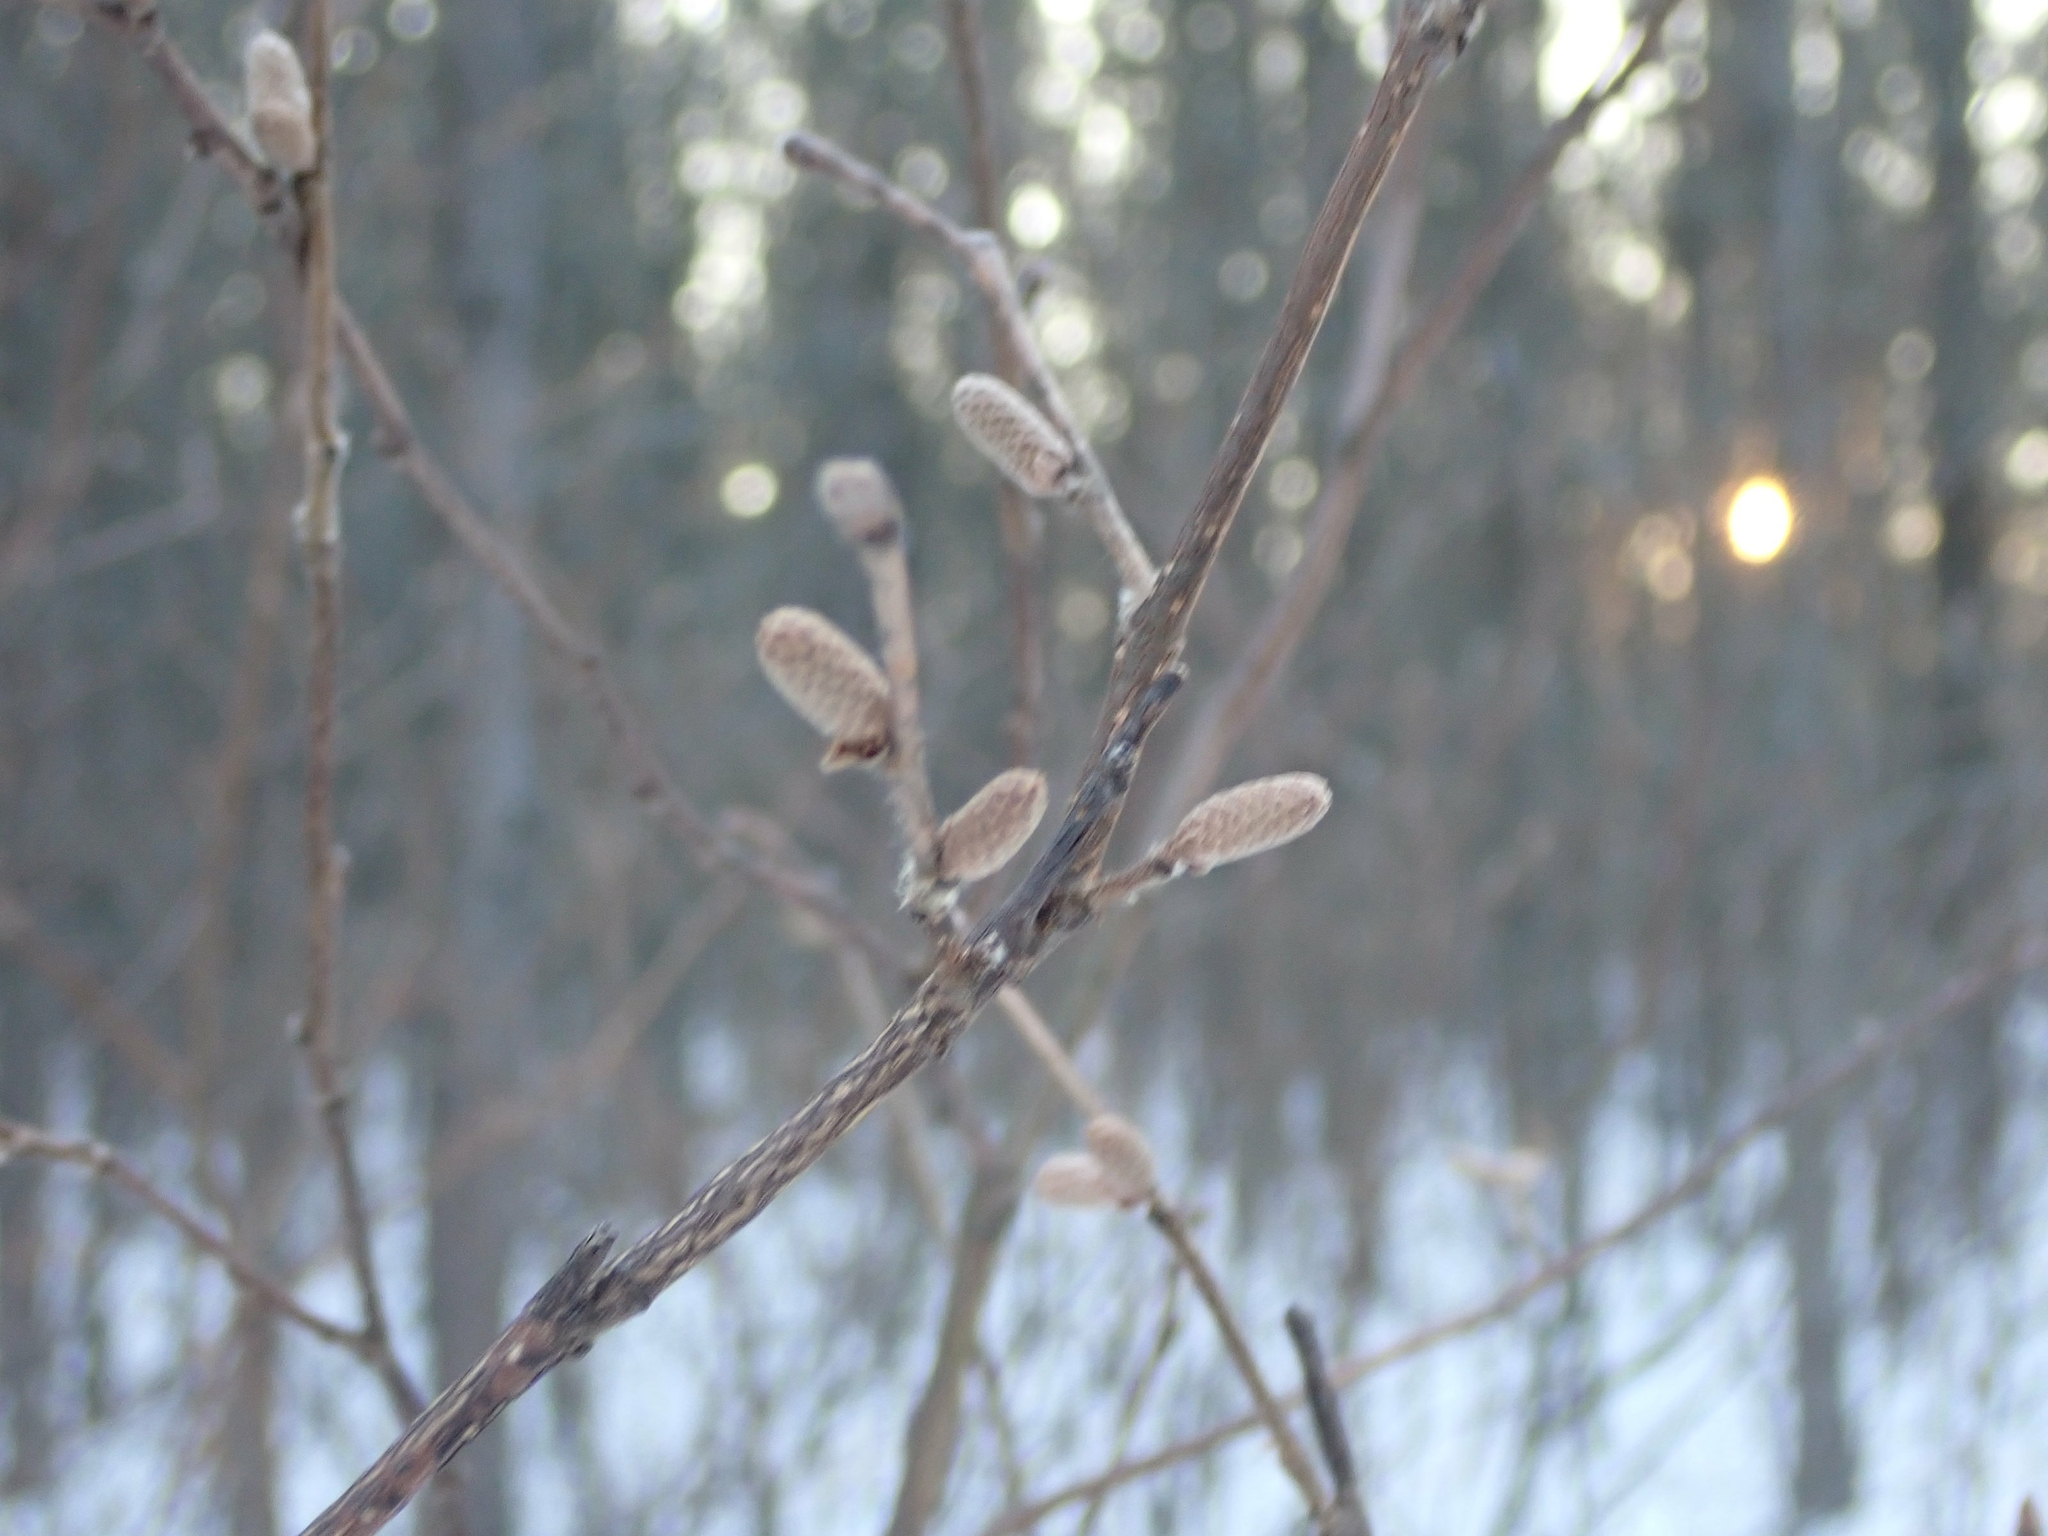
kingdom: Plantae
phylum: Tracheophyta
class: Magnoliopsida
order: Fagales
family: Betulaceae
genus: Corylus
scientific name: Corylus americana
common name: American hazel
